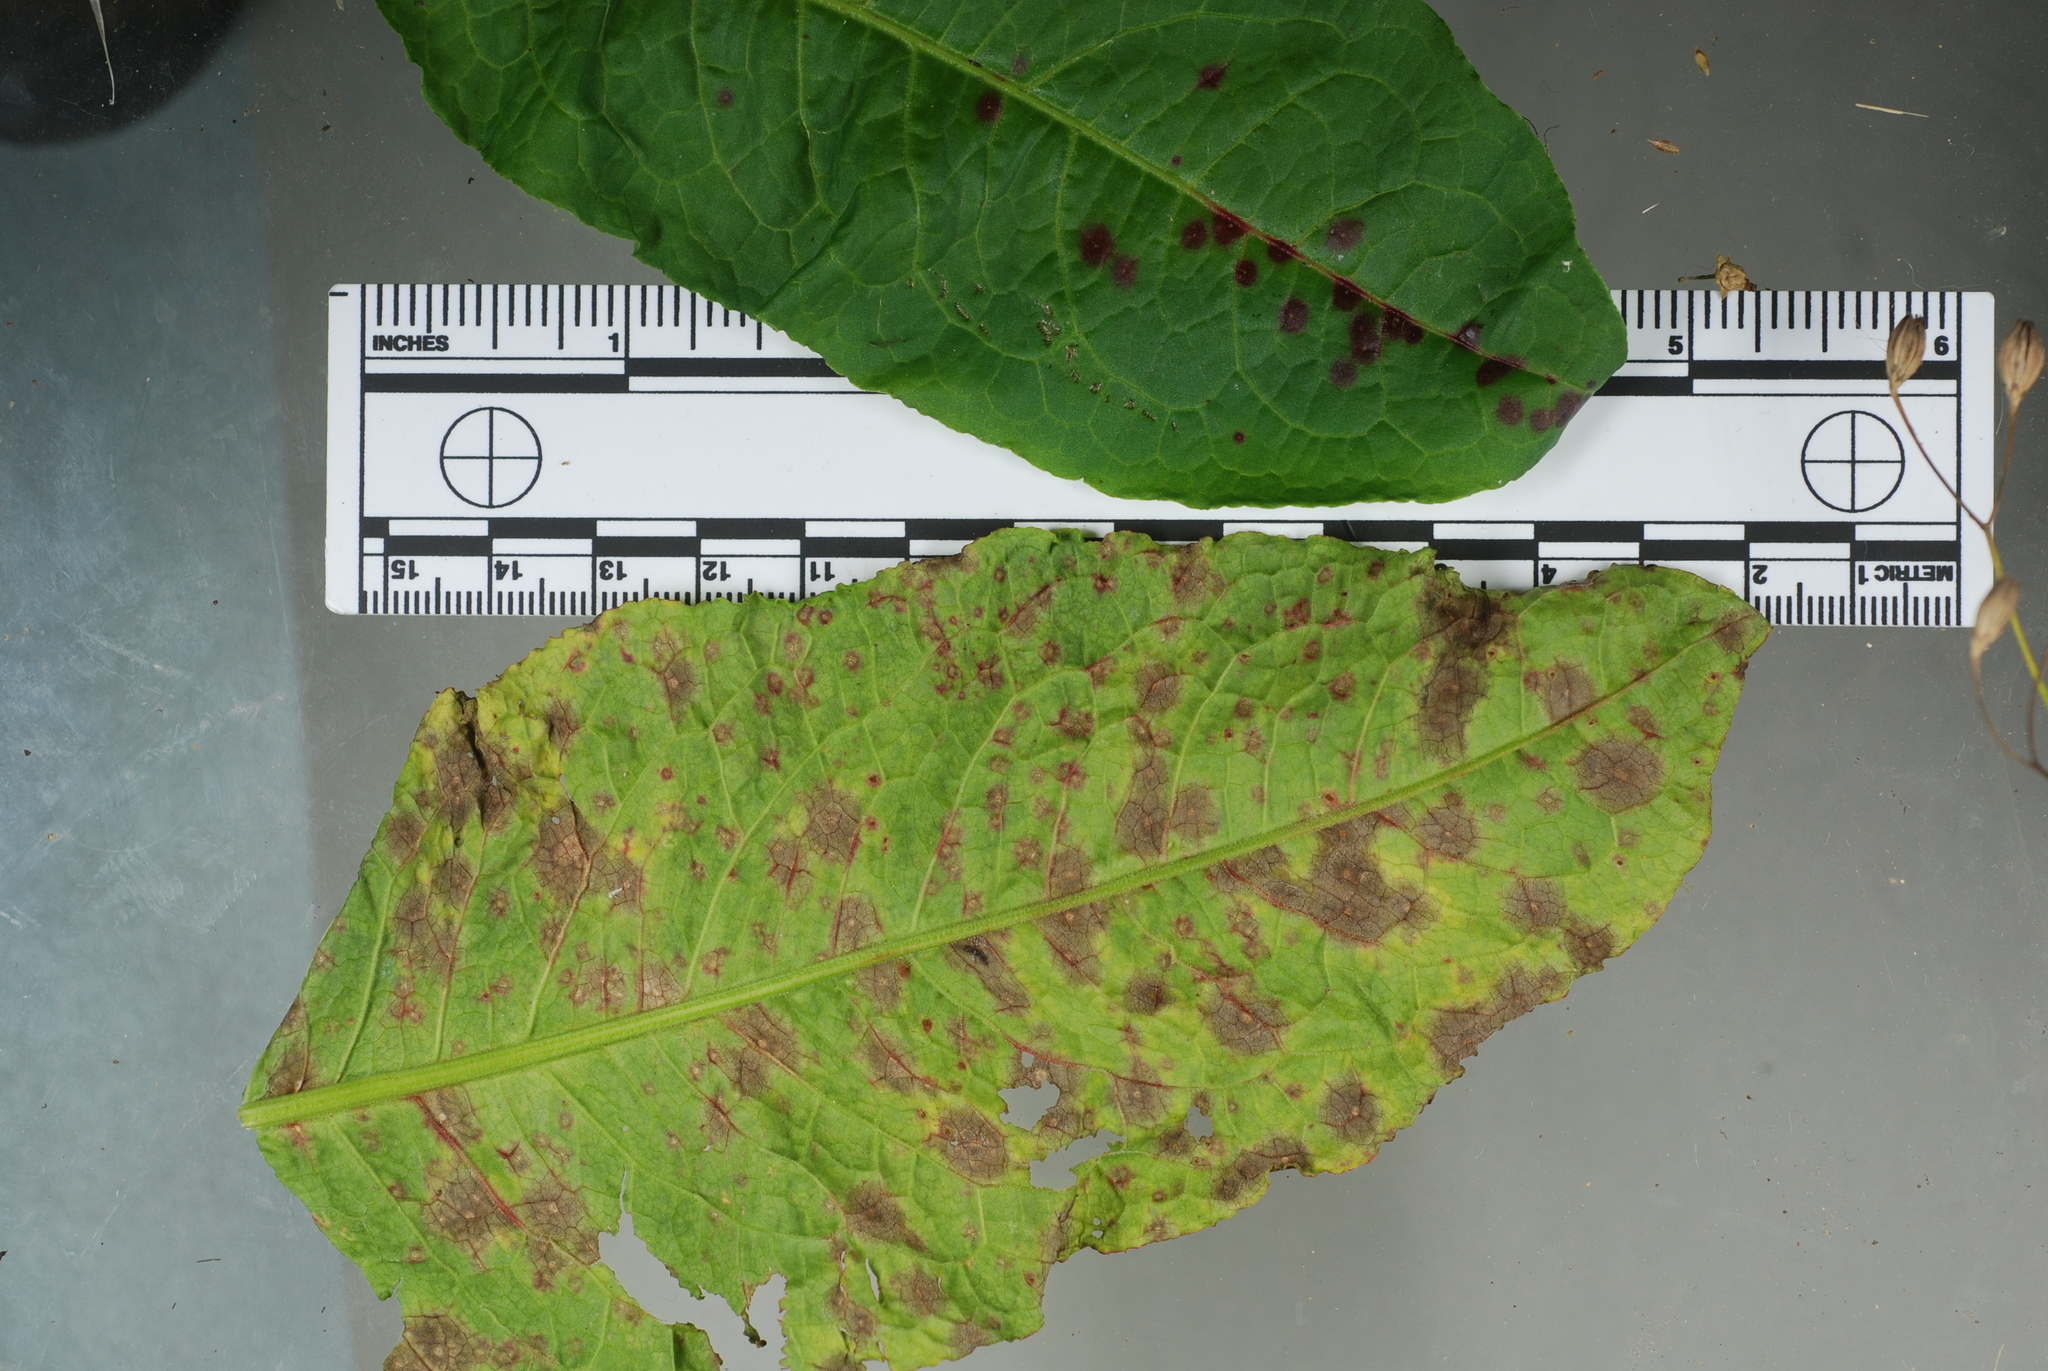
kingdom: Fungi
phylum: Ascomycota
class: Dothideomycetes
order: Mycosphaerellales
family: Mycosphaerellaceae
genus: Ramularia
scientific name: Ramularia rubella
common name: Red dock spot
